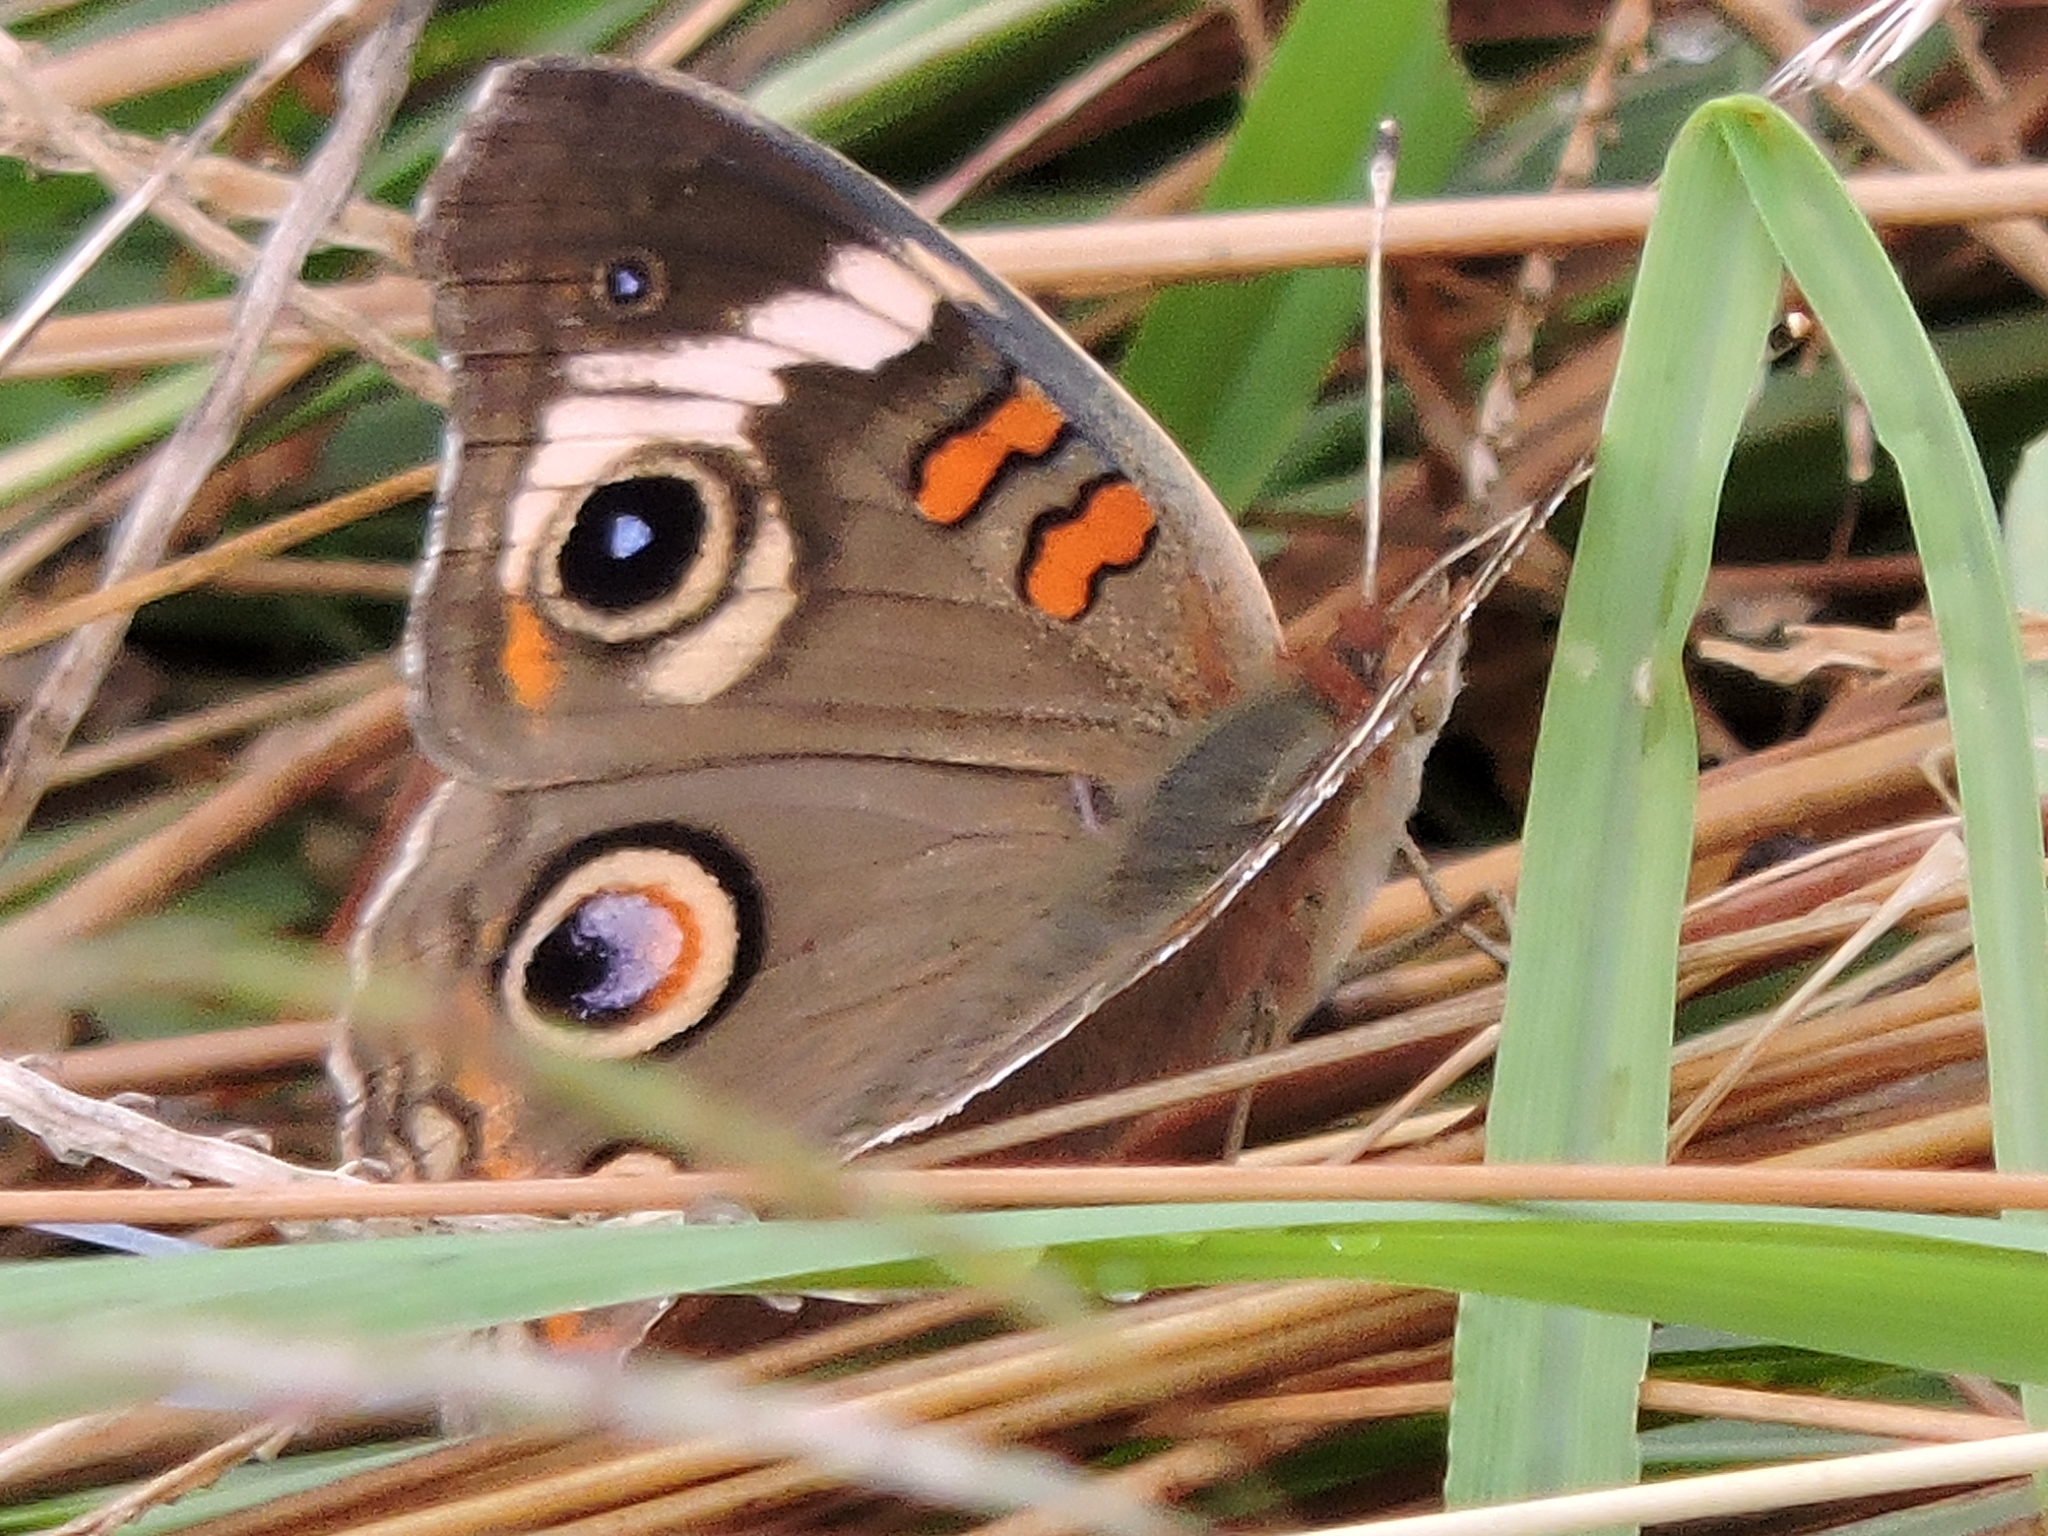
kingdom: Animalia
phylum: Arthropoda
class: Insecta
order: Lepidoptera
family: Nymphalidae
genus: Junonia
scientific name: Junonia coenia
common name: Common buckeye
